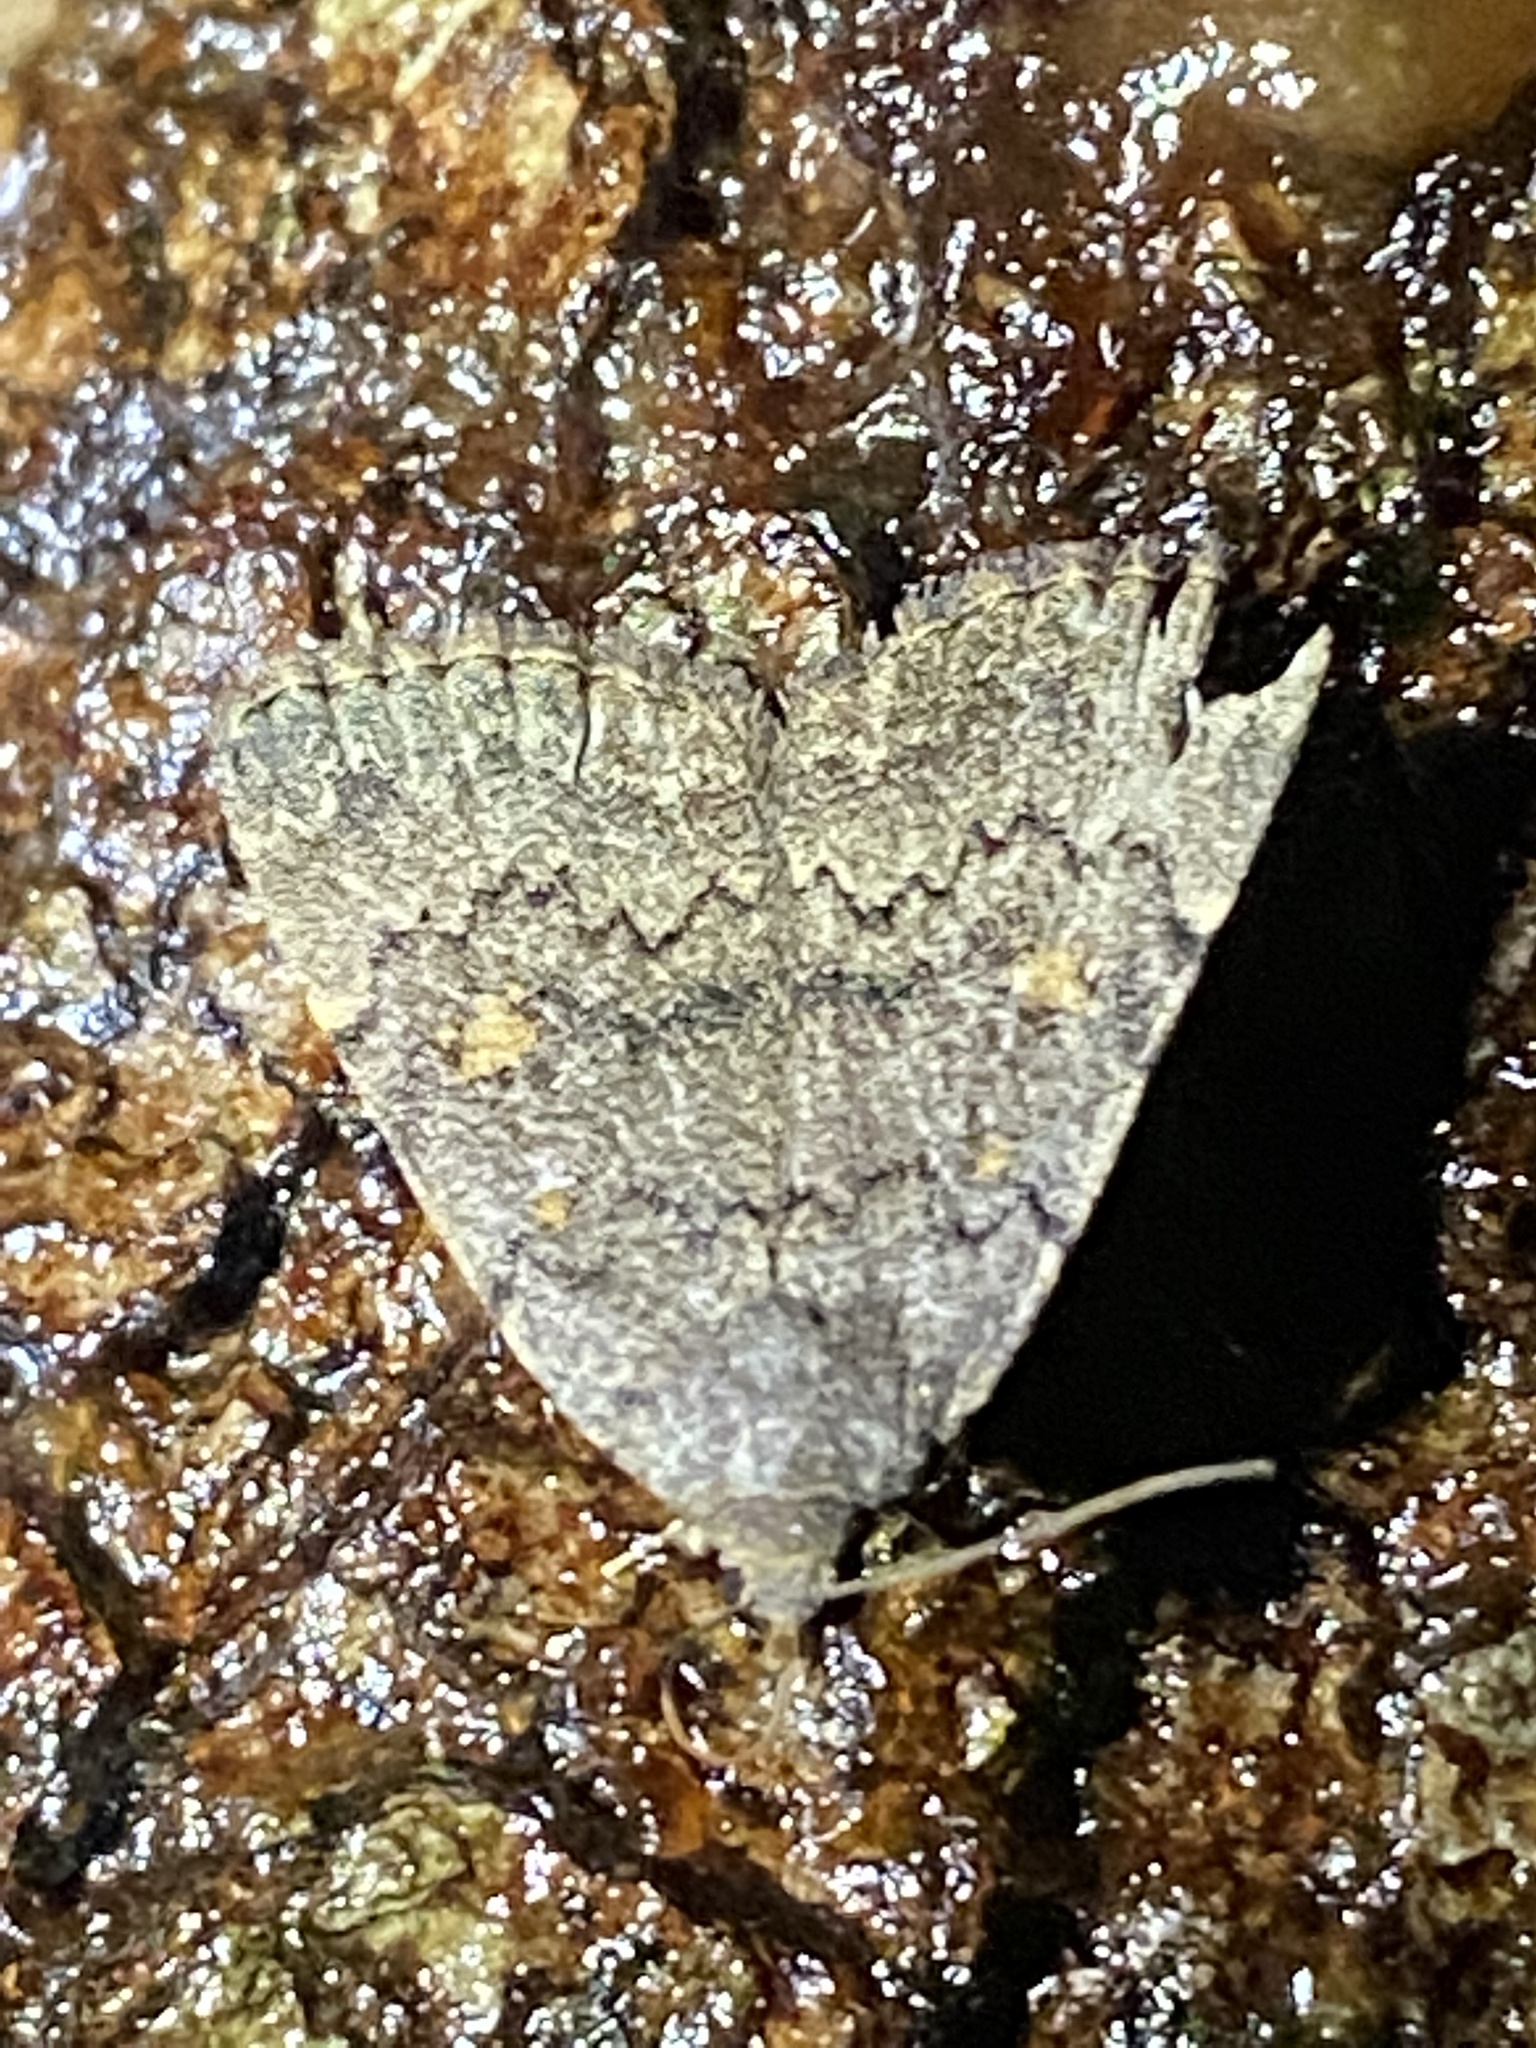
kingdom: Animalia
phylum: Arthropoda
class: Insecta
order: Lepidoptera
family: Erebidae
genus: Idia
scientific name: Idia aemula
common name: Common idia moth
